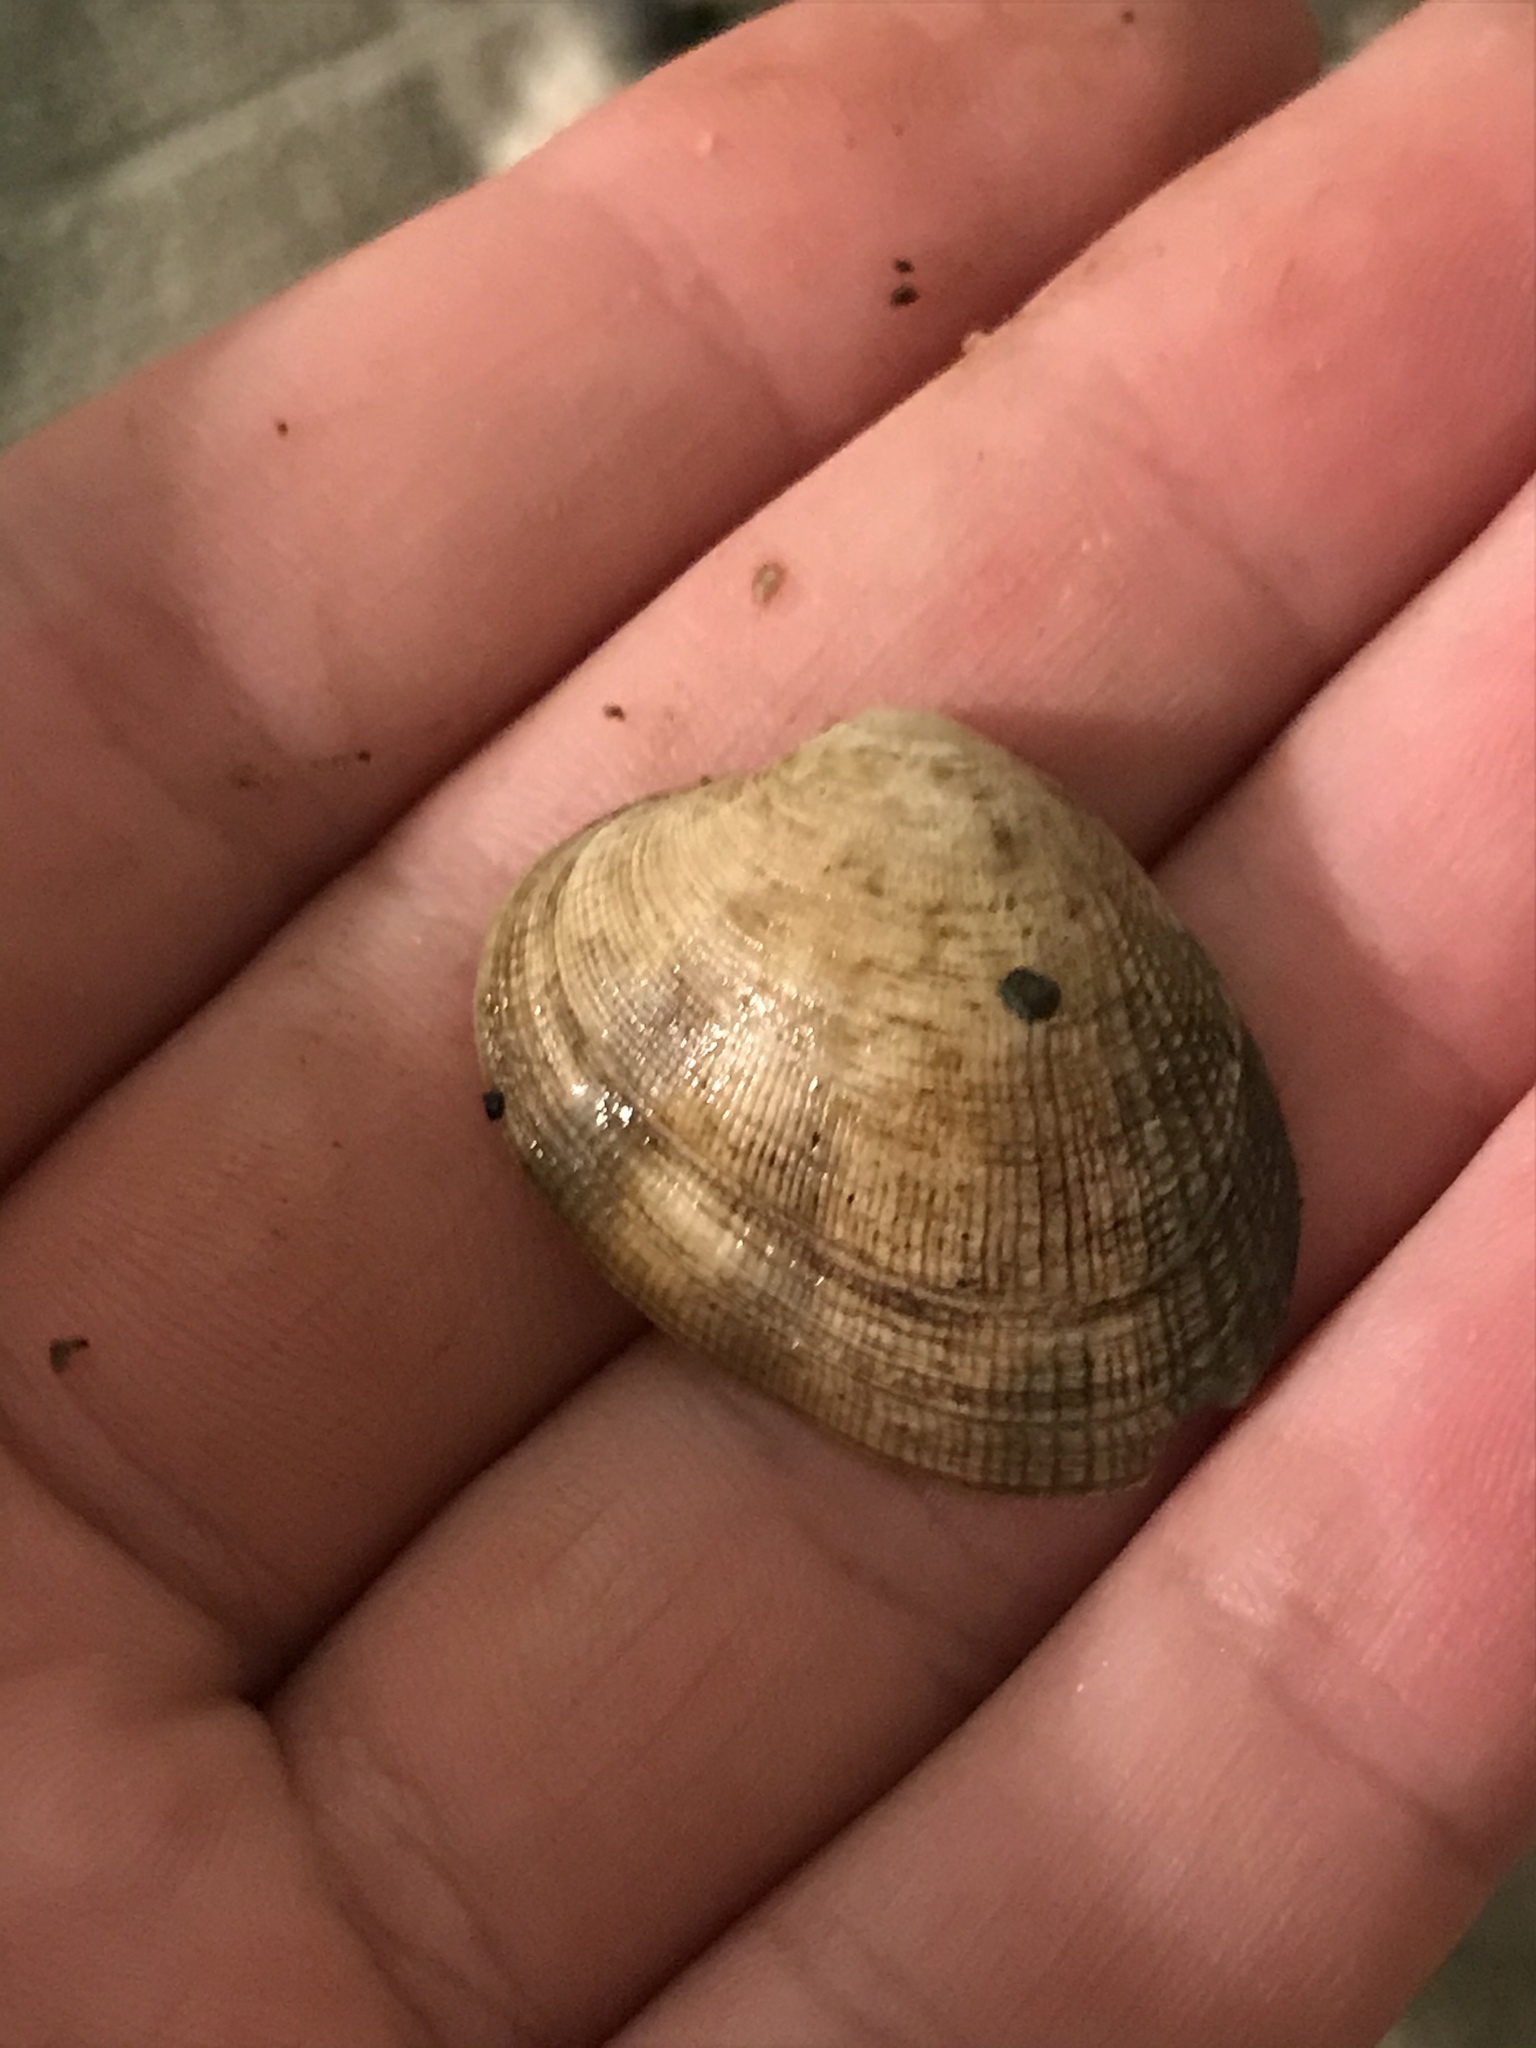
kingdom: Animalia
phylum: Mollusca
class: Bivalvia
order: Venerida
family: Veneridae
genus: Ruditapes
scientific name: Ruditapes philippinarum
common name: Manila clam
